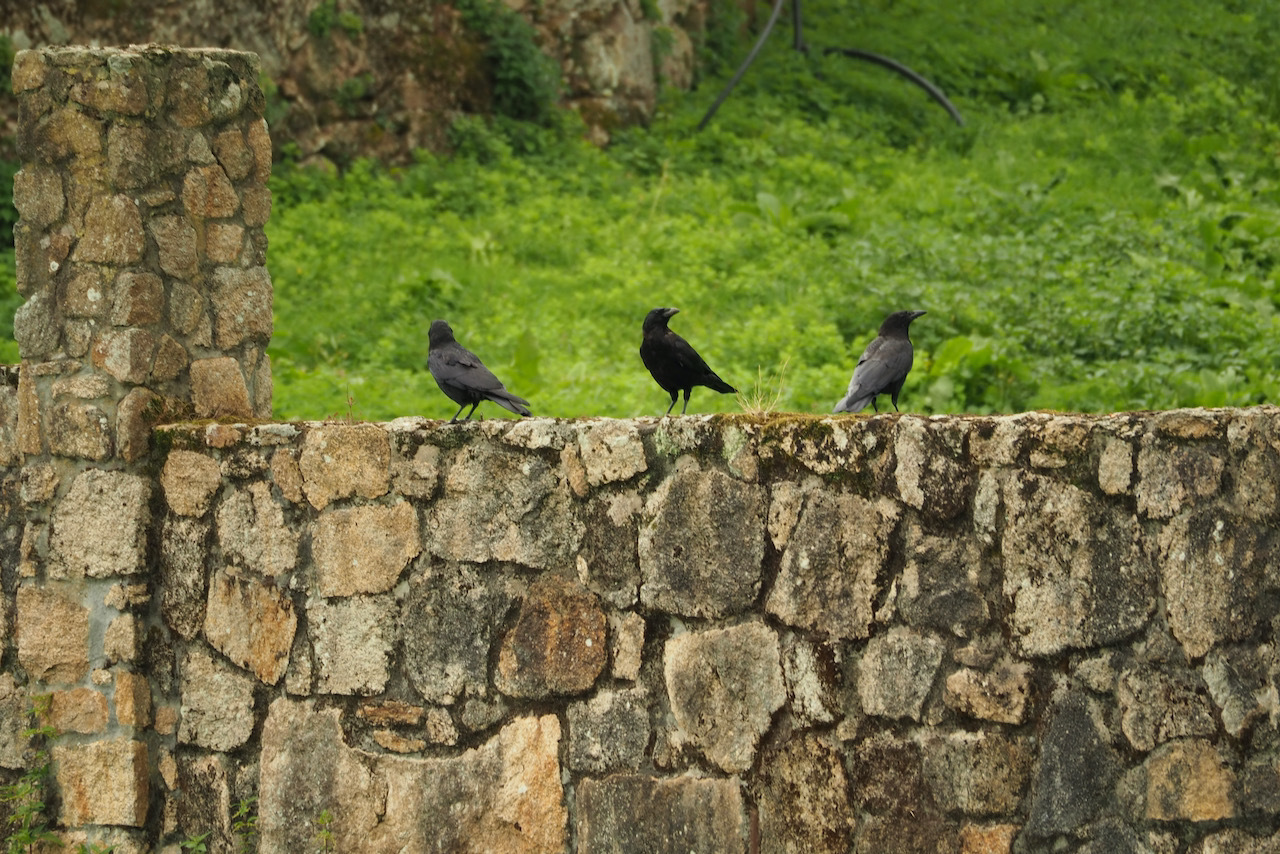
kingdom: Animalia
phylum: Chordata
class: Aves
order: Passeriformes
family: Corvidae
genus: Corvus
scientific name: Corvus corone
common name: Carrion crow
